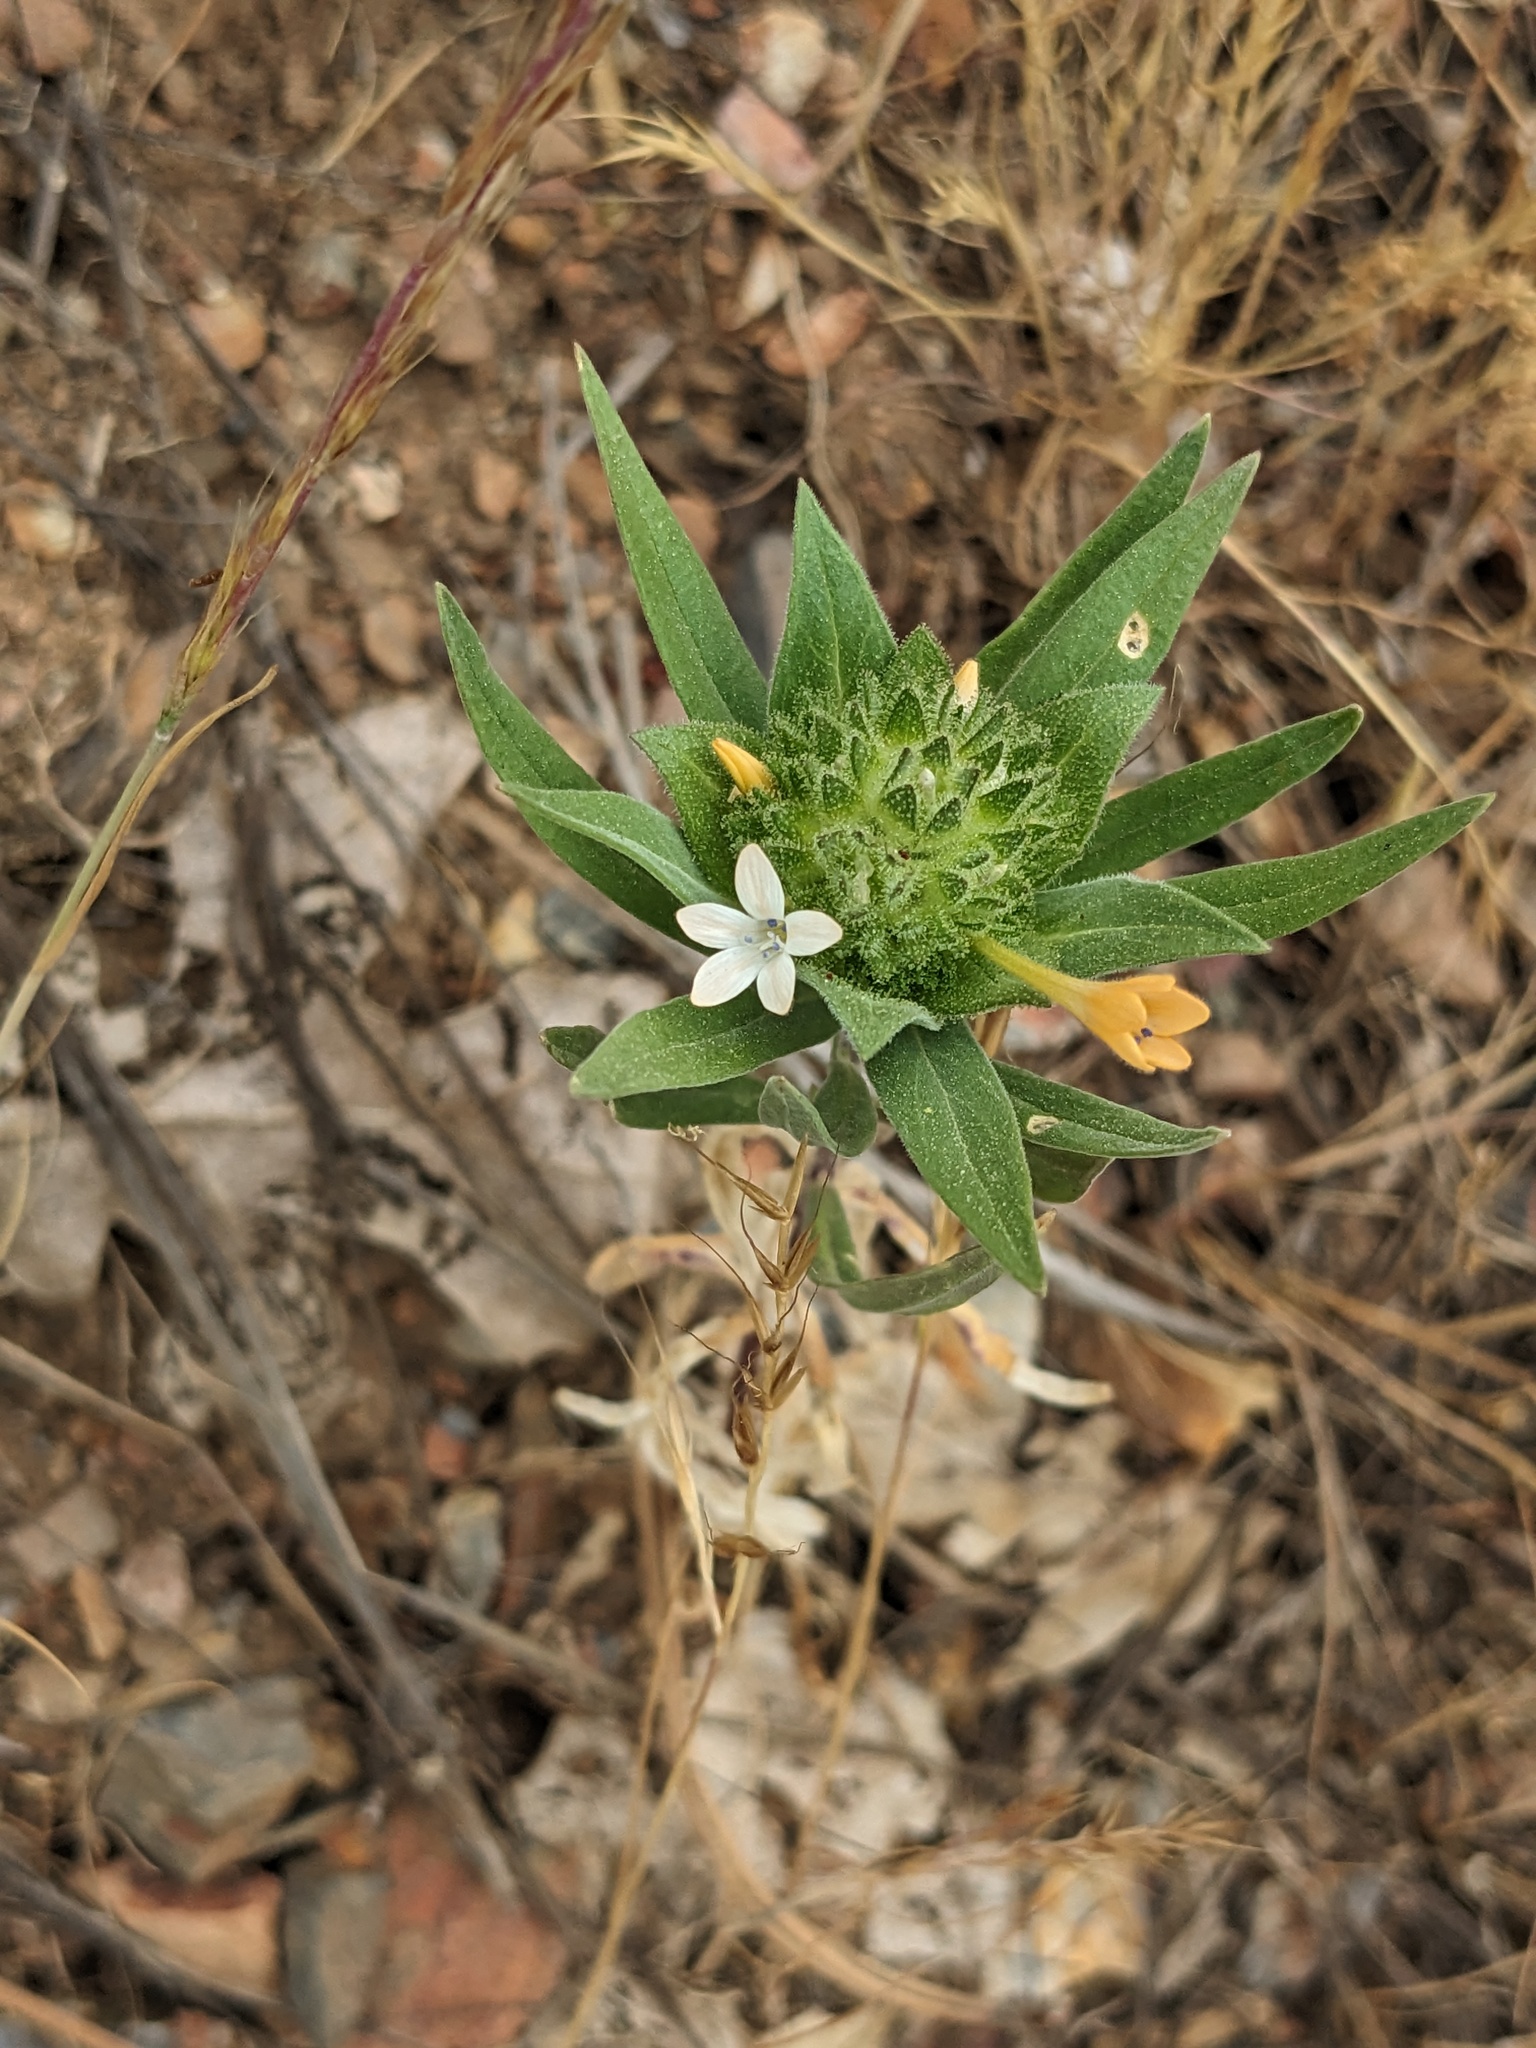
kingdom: Plantae
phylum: Tracheophyta
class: Magnoliopsida
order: Ericales
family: Polemoniaceae
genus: Collomia
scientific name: Collomia grandiflora
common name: California strawflower
